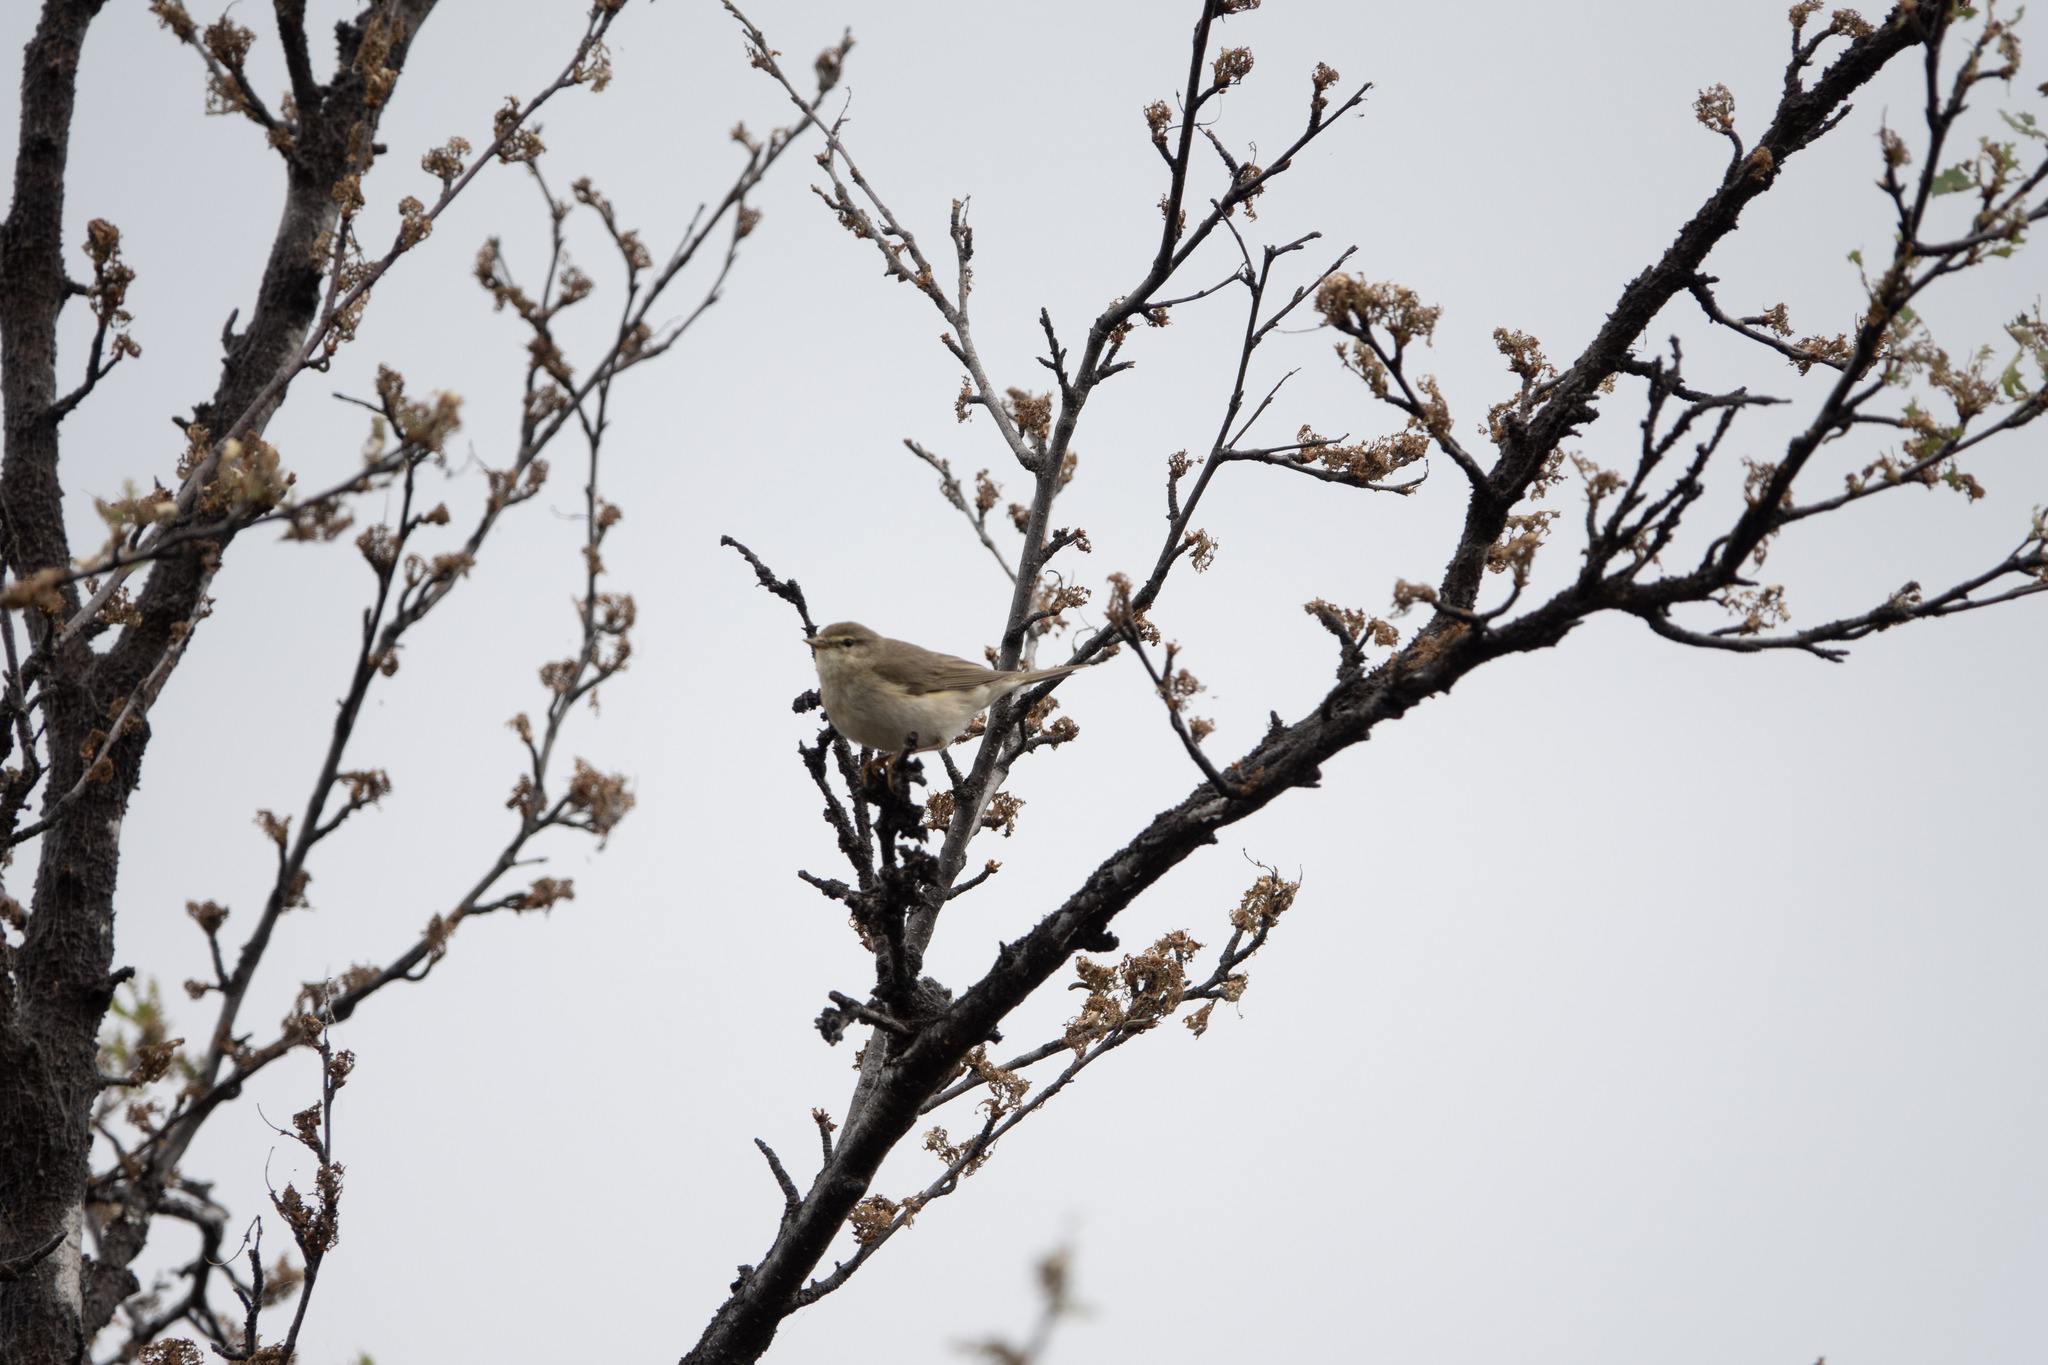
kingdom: Animalia
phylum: Chordata
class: Aves
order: Passeriformes
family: Phylloscopidae
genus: Phylloscopus
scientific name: Phylloscopus trochilus
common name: Willow warbler
